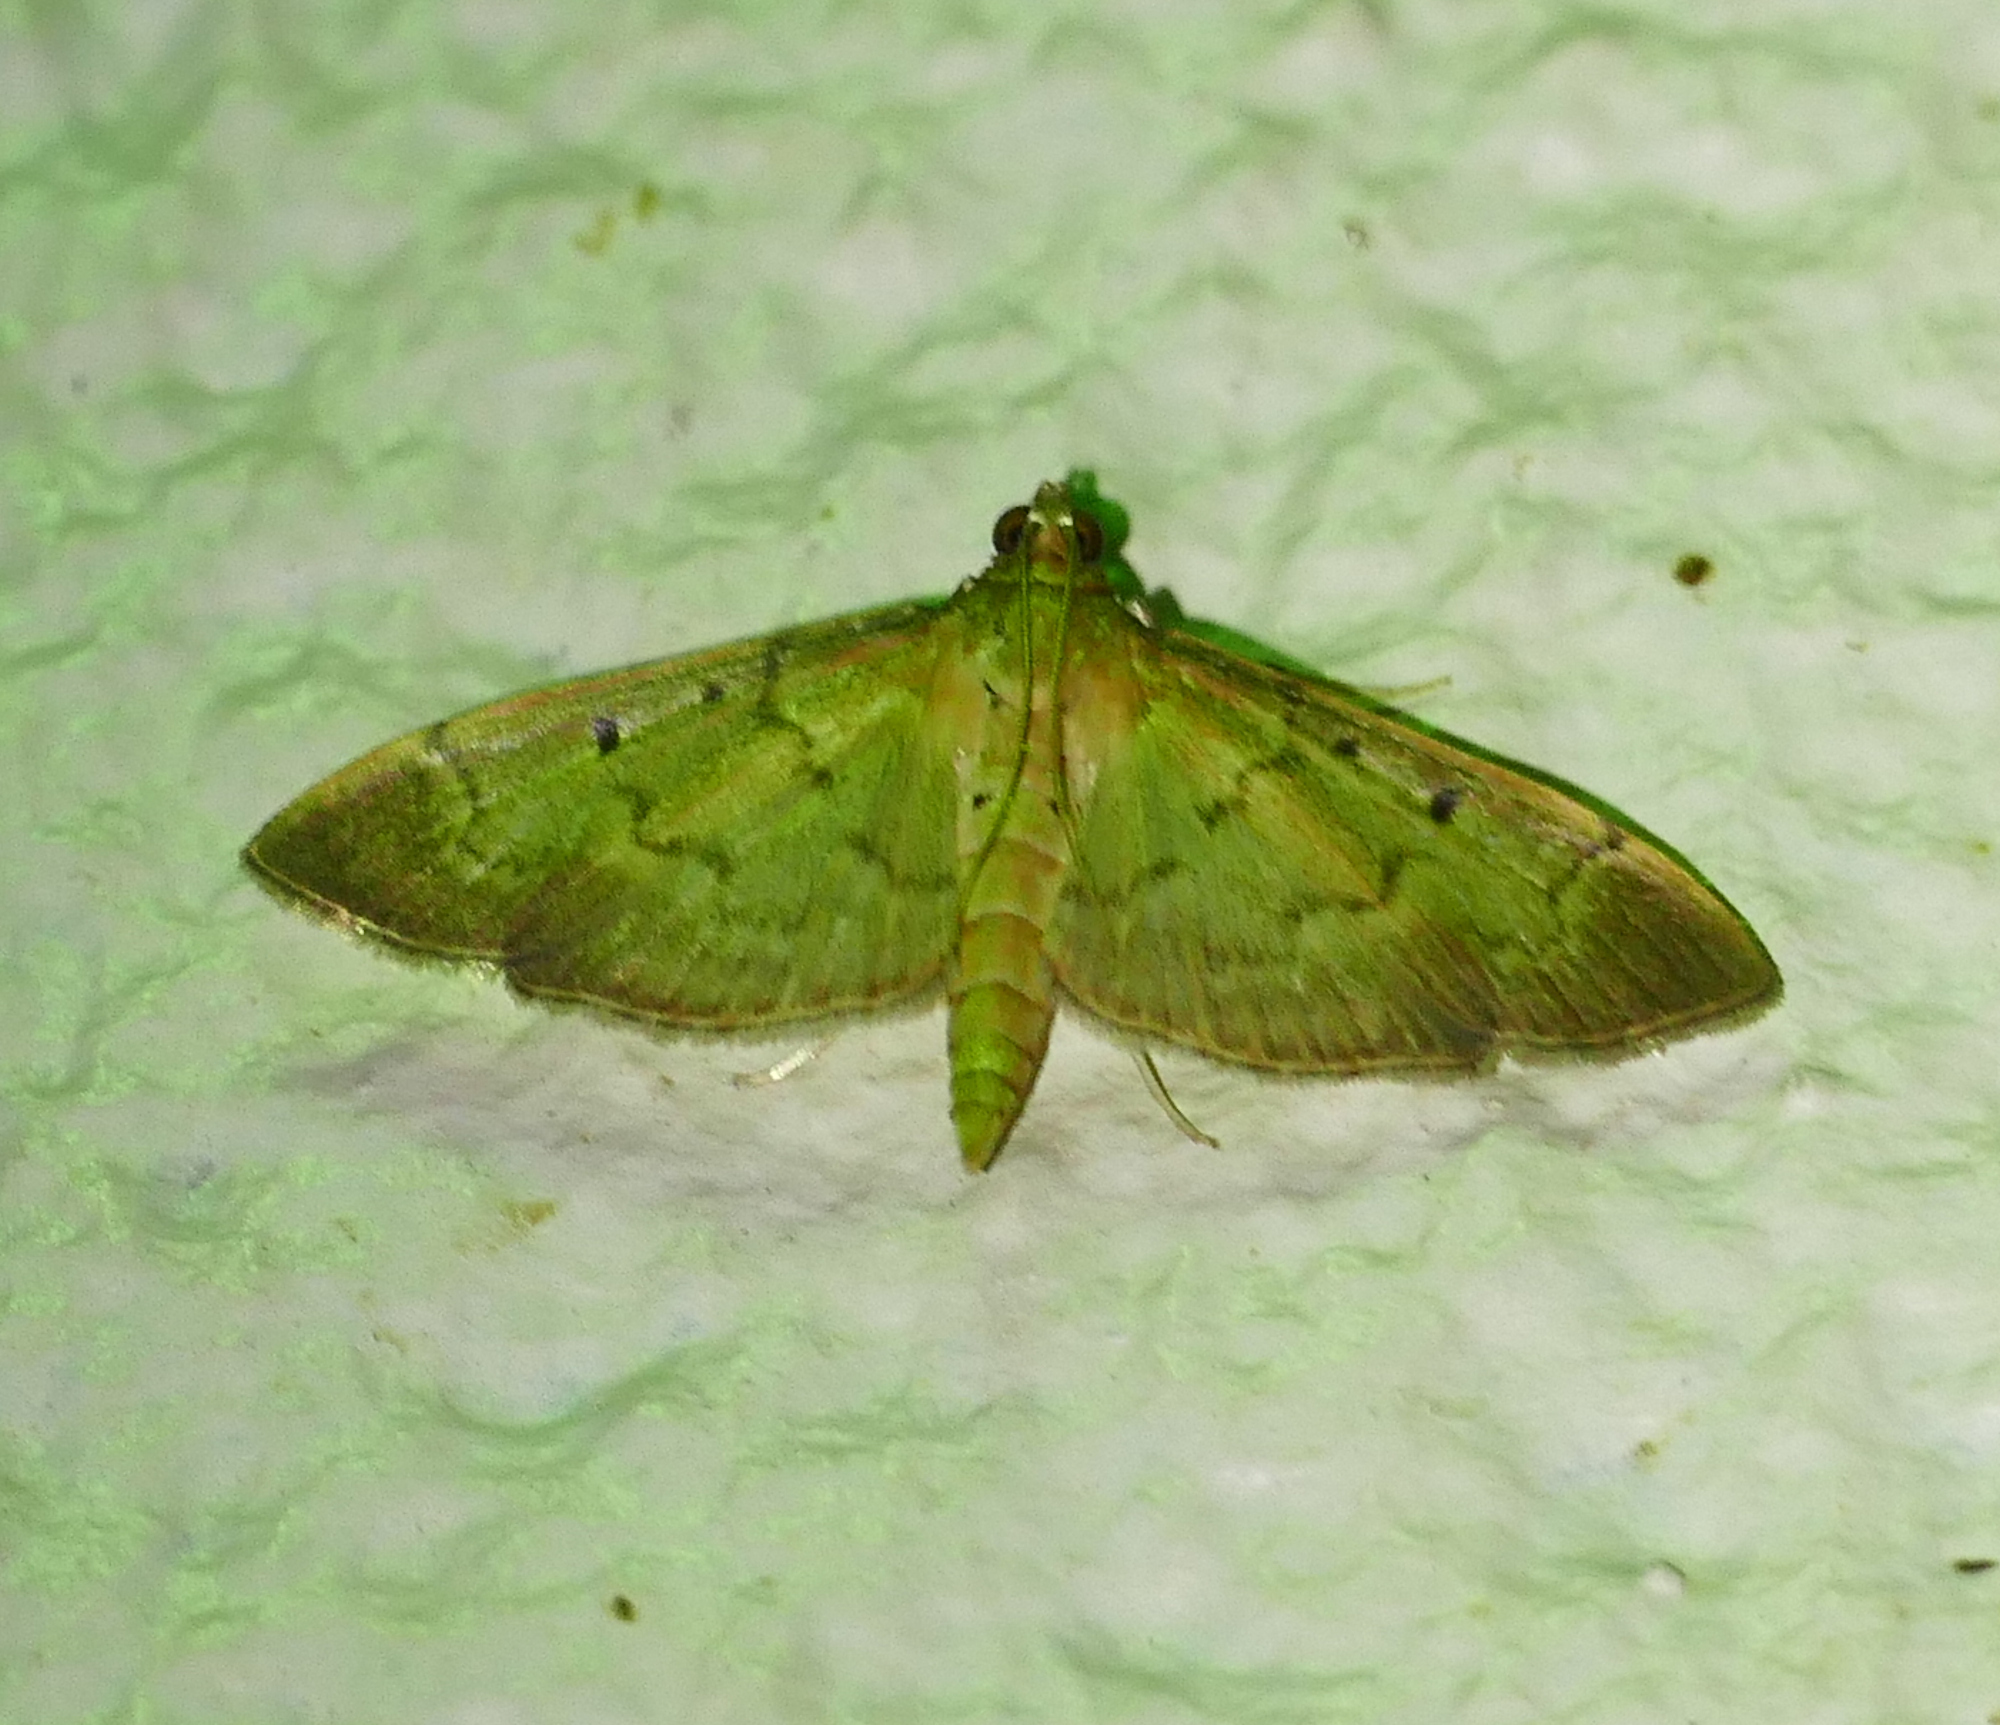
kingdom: Animalia
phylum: Arthropoda
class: Insecta
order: Lepidoptera
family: Crambidae
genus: Herpetogramma
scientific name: Herpetogramma bipunctalis
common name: Southern beet webworm
